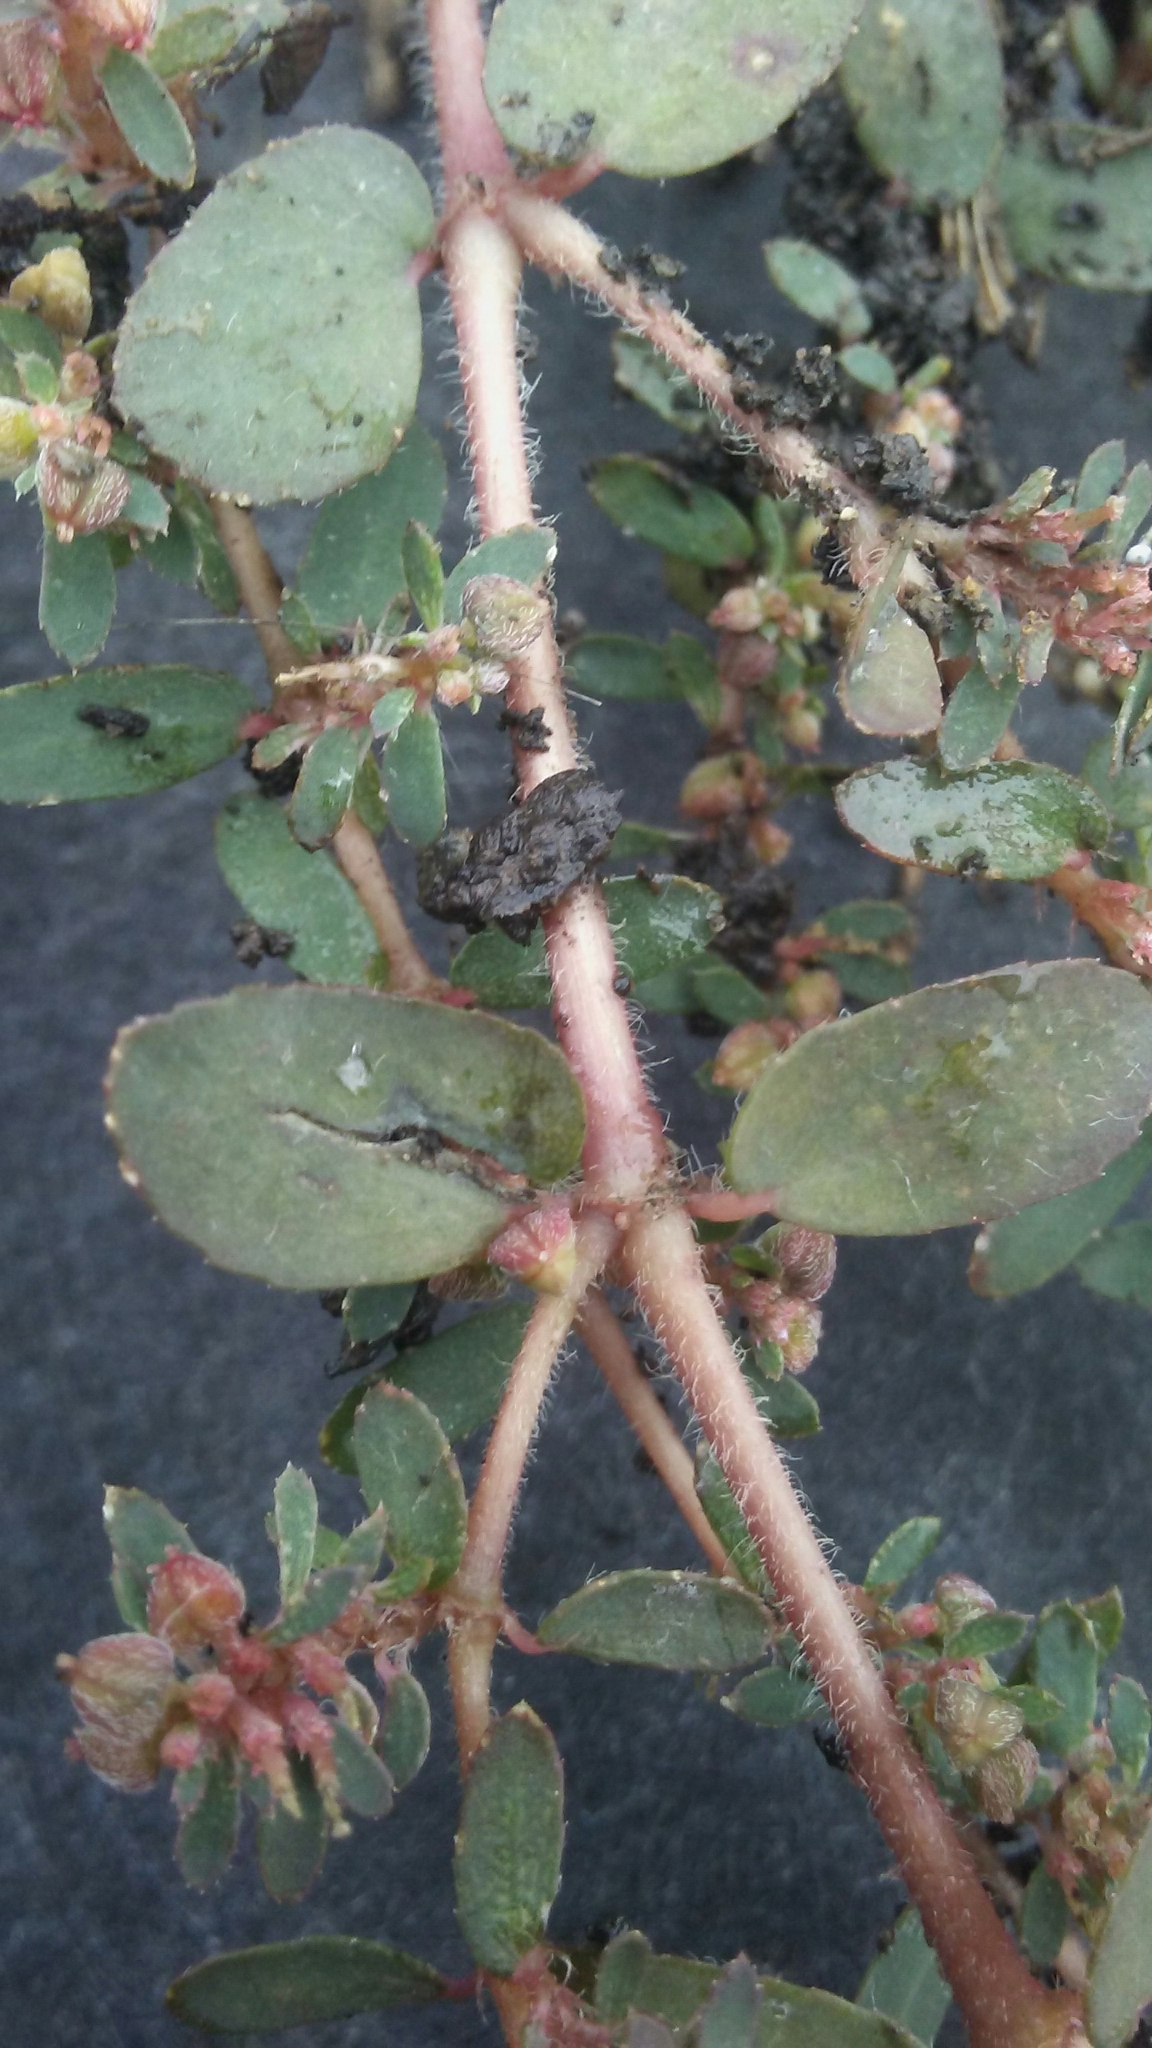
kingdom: Plantae
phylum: Tracheophyta
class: Magnoliopsida
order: Malpighiales
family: Euphorbiaceae
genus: Euphorbia
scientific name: Euphorbia maculata
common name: Spotted spurge
